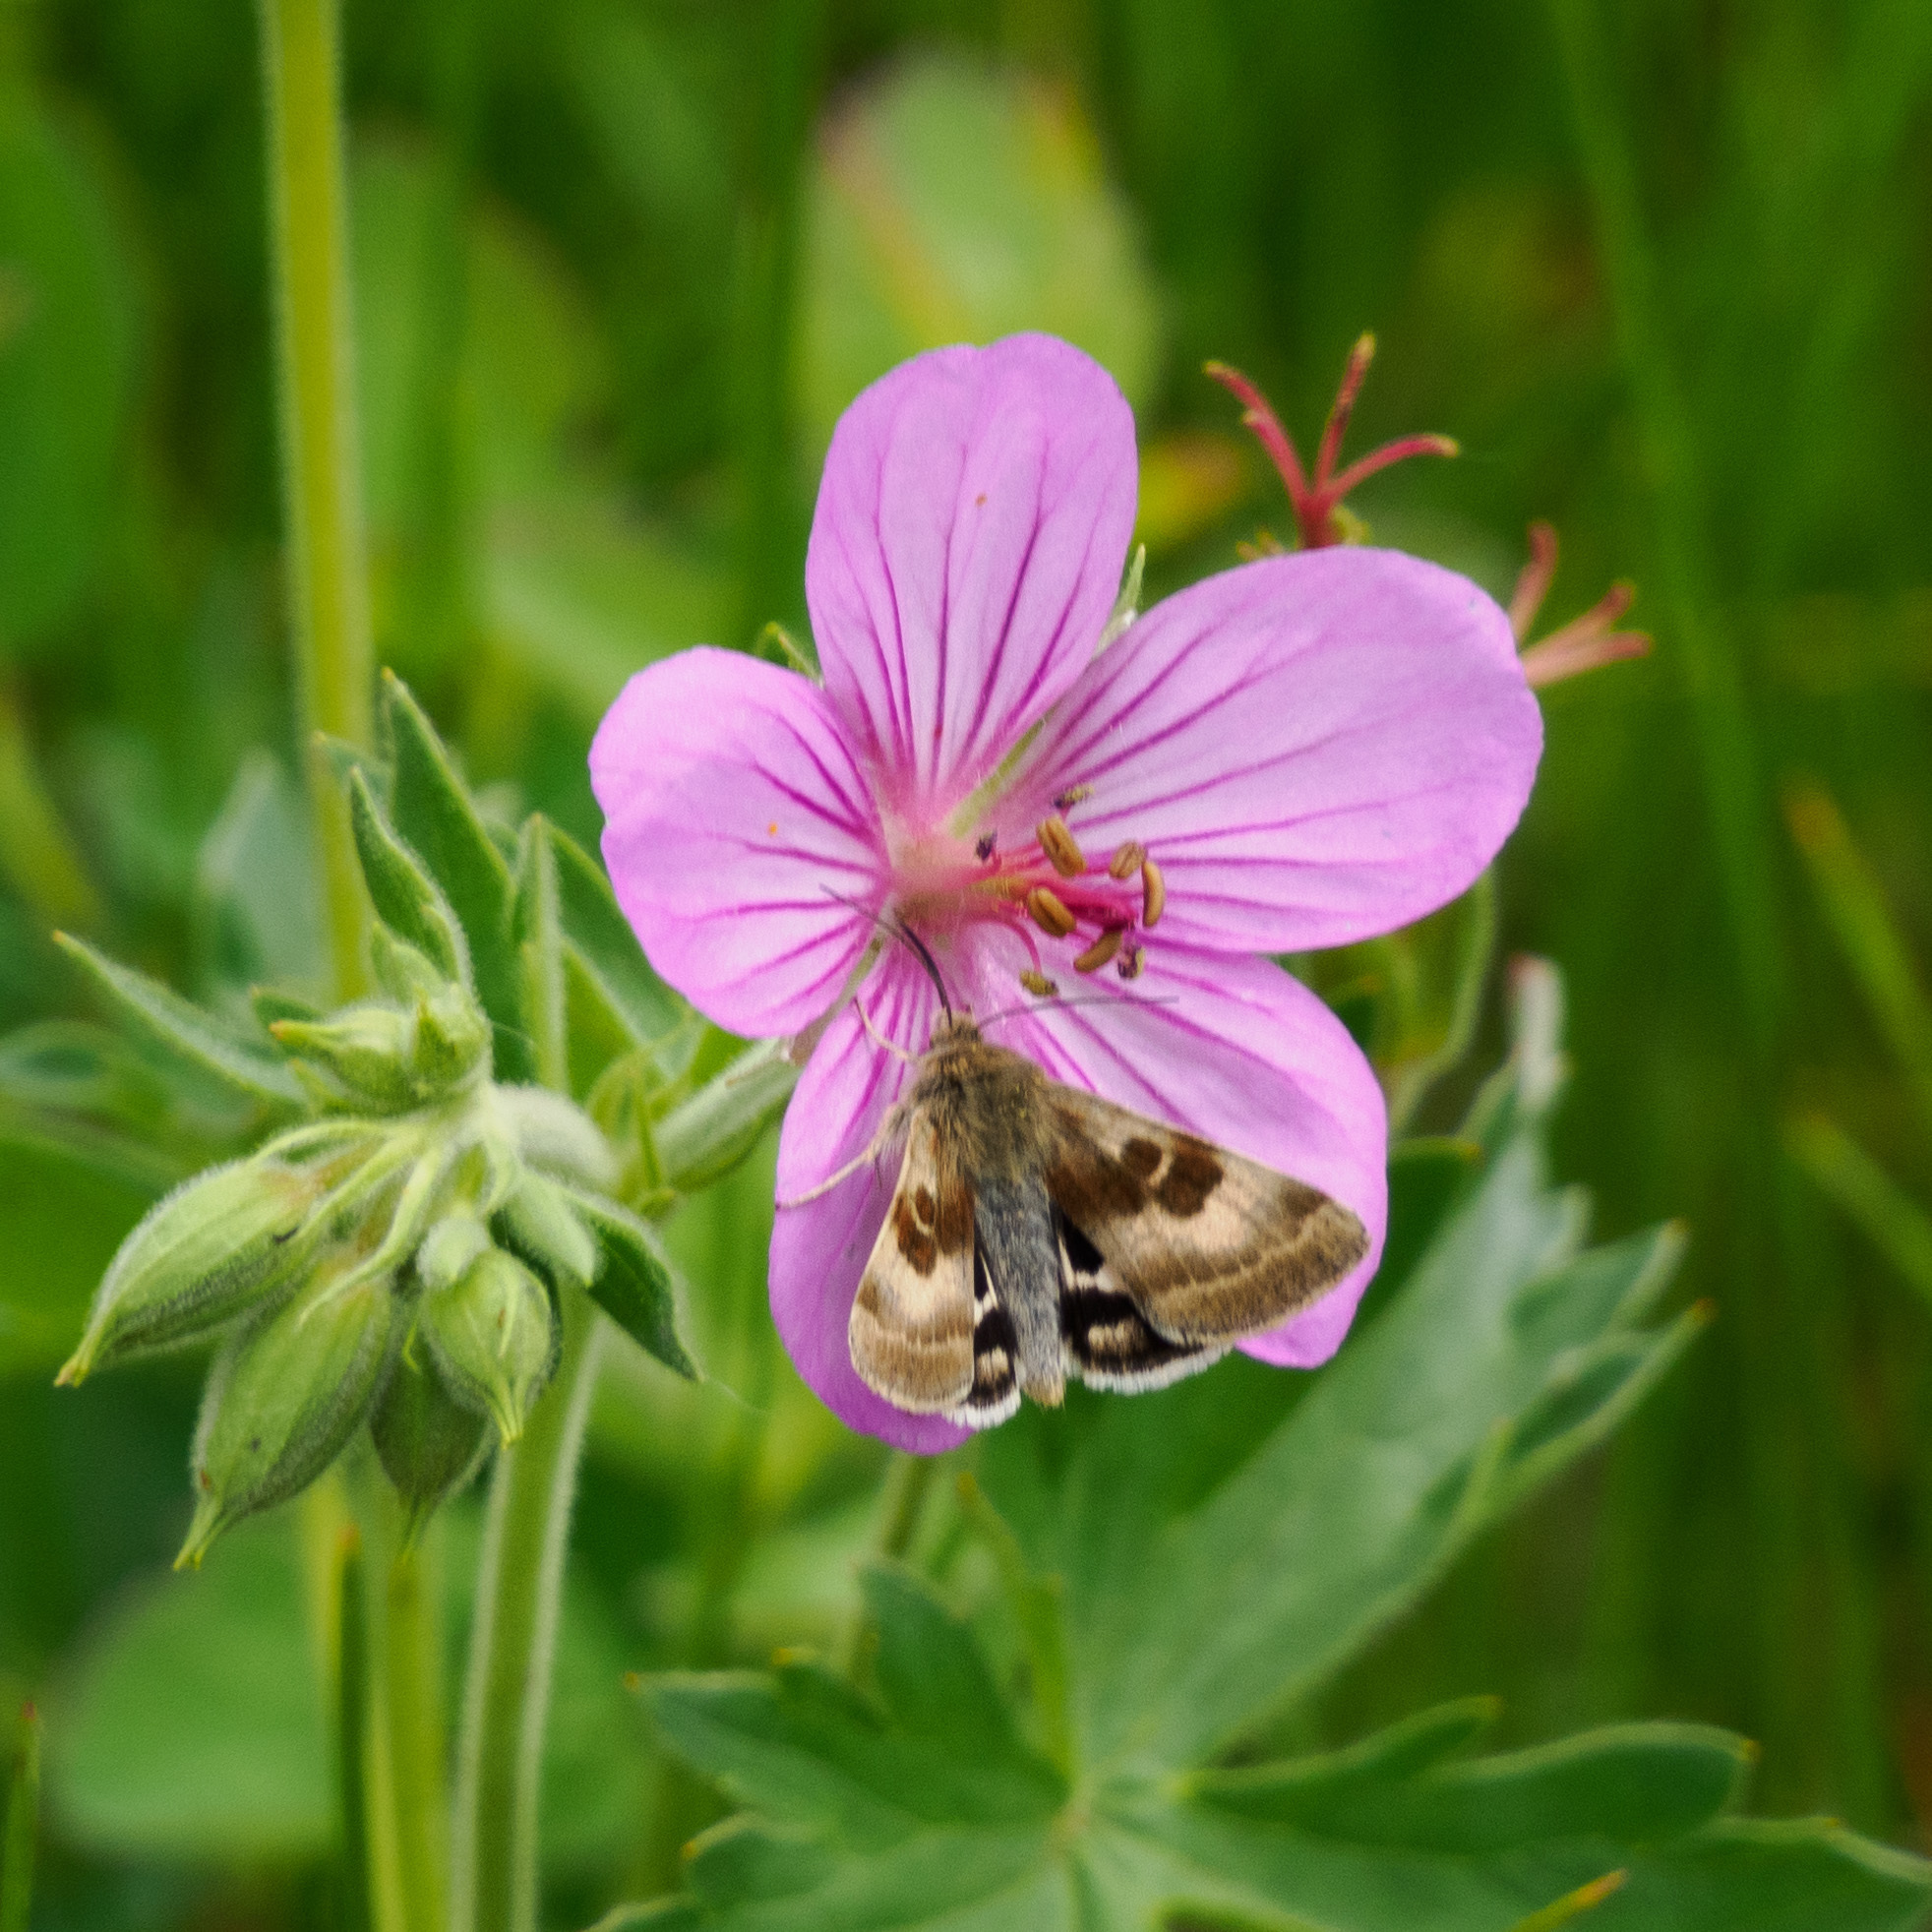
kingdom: Plantae
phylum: Tracheophyta
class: Magnoliopsida
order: Geraniales
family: Geraniaceae
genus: Geranium
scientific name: Geranium viscosissimum
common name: Purple geranium
